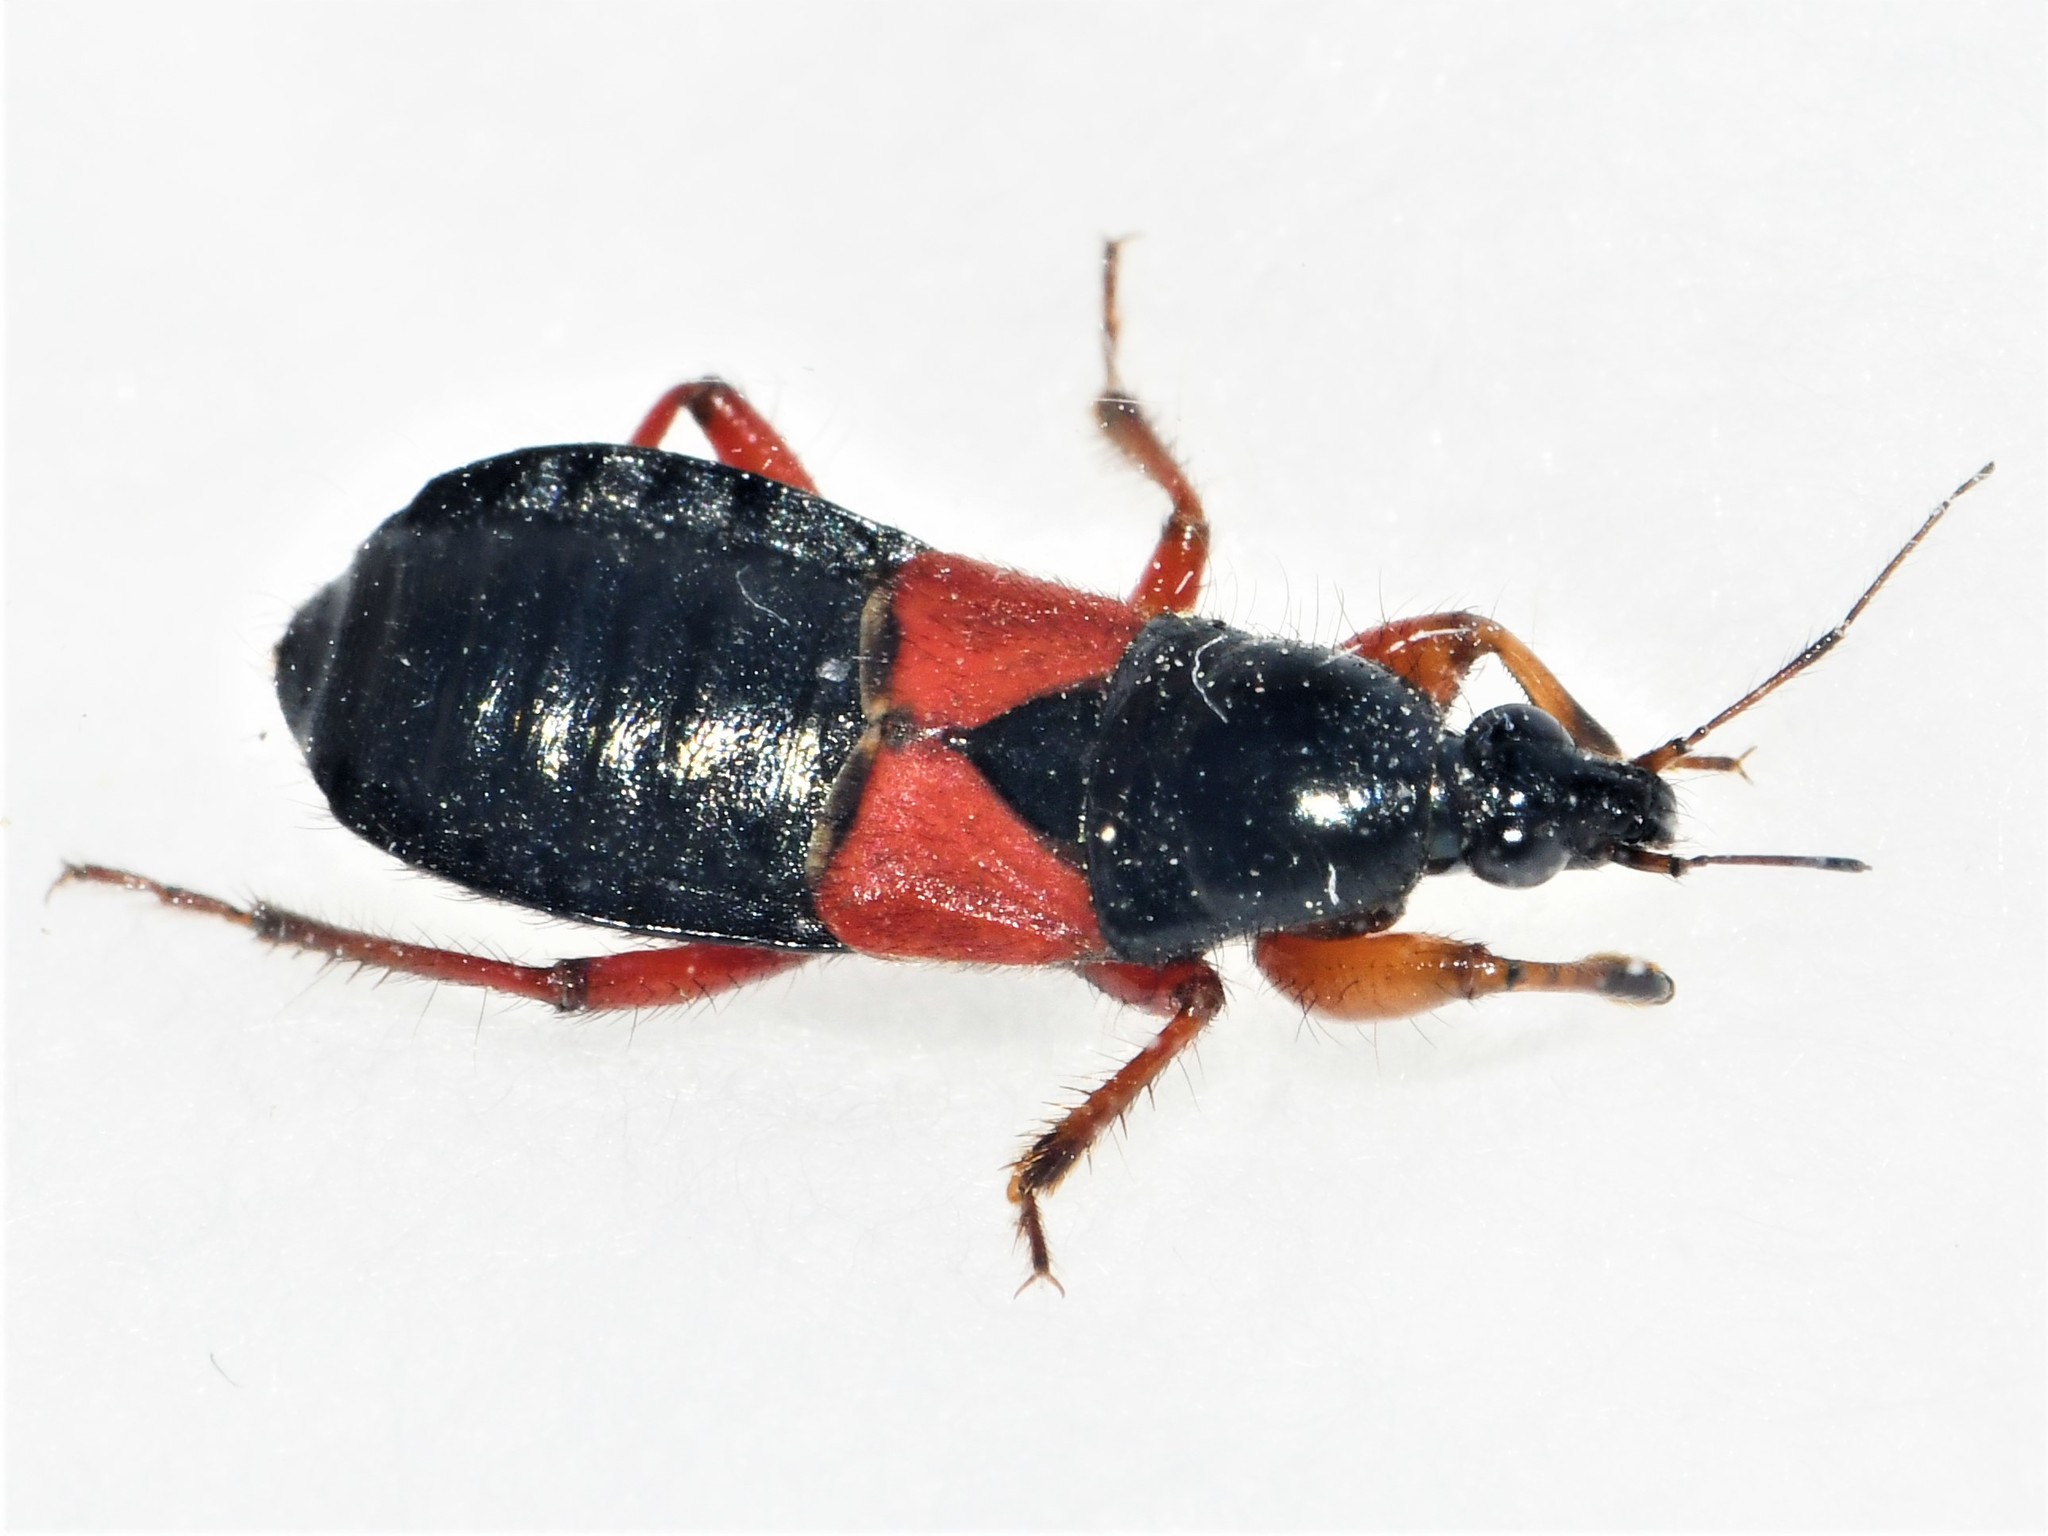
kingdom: Animalia
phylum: Arthropoda
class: Insecta
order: Hemiptera
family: Nabidae
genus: Prostemma
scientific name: Prostemma guttula
